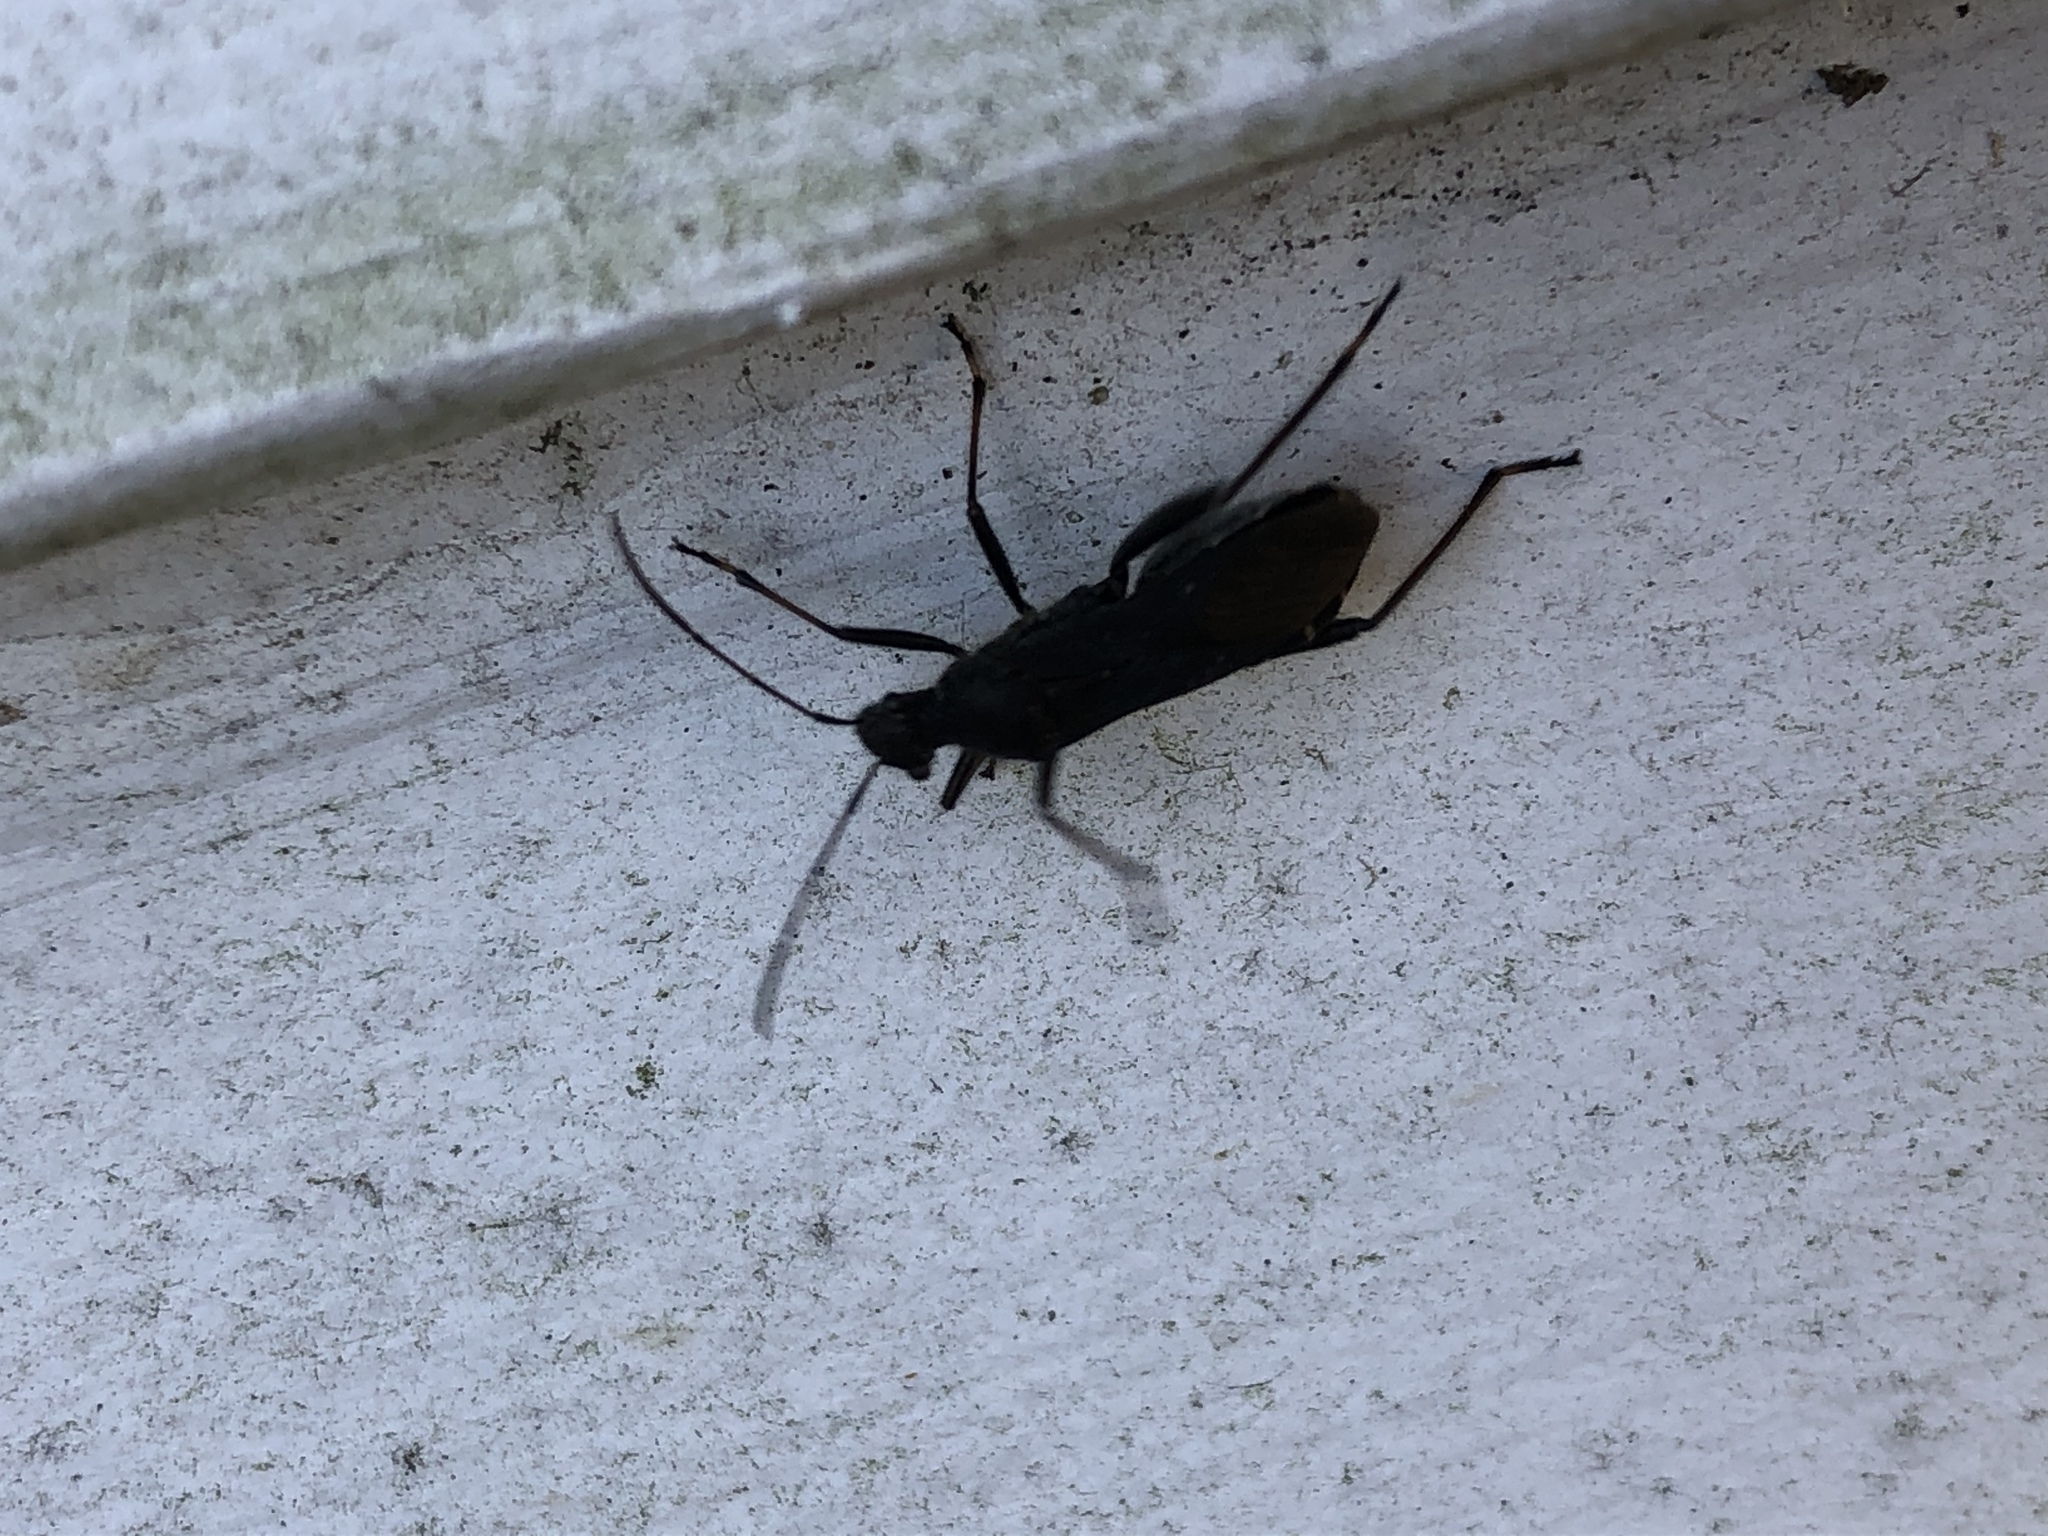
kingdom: Animalia
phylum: Arthropoda
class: Insecta
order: Hemiptera
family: Alydidae
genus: Alydus
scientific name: Alydus eurinus
